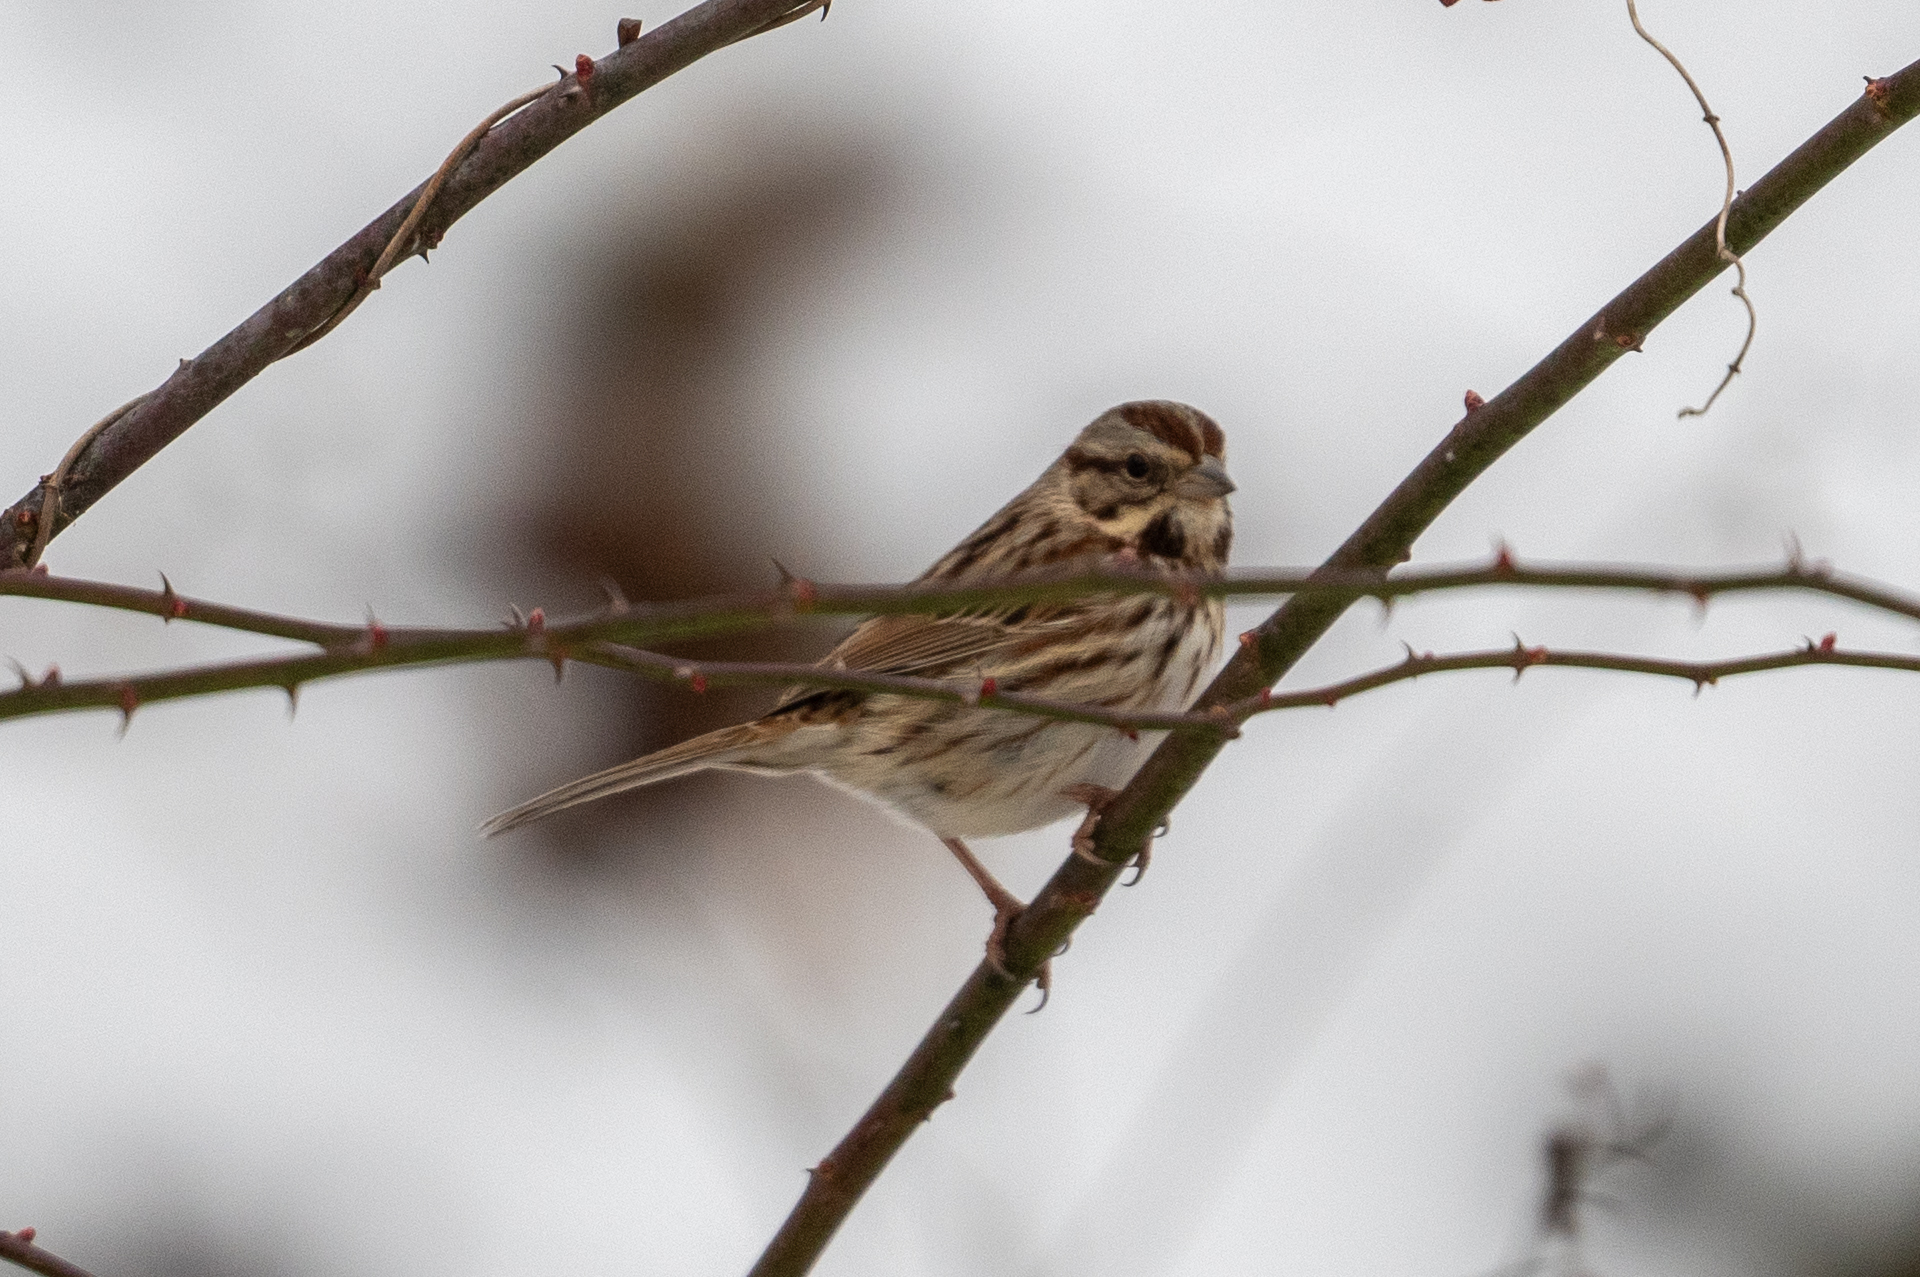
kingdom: Animalia
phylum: Chordata
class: Aves
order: Passeriformes
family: Passerellidae
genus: Melospiza
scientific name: Melospiza melodia
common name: Song sparrow
